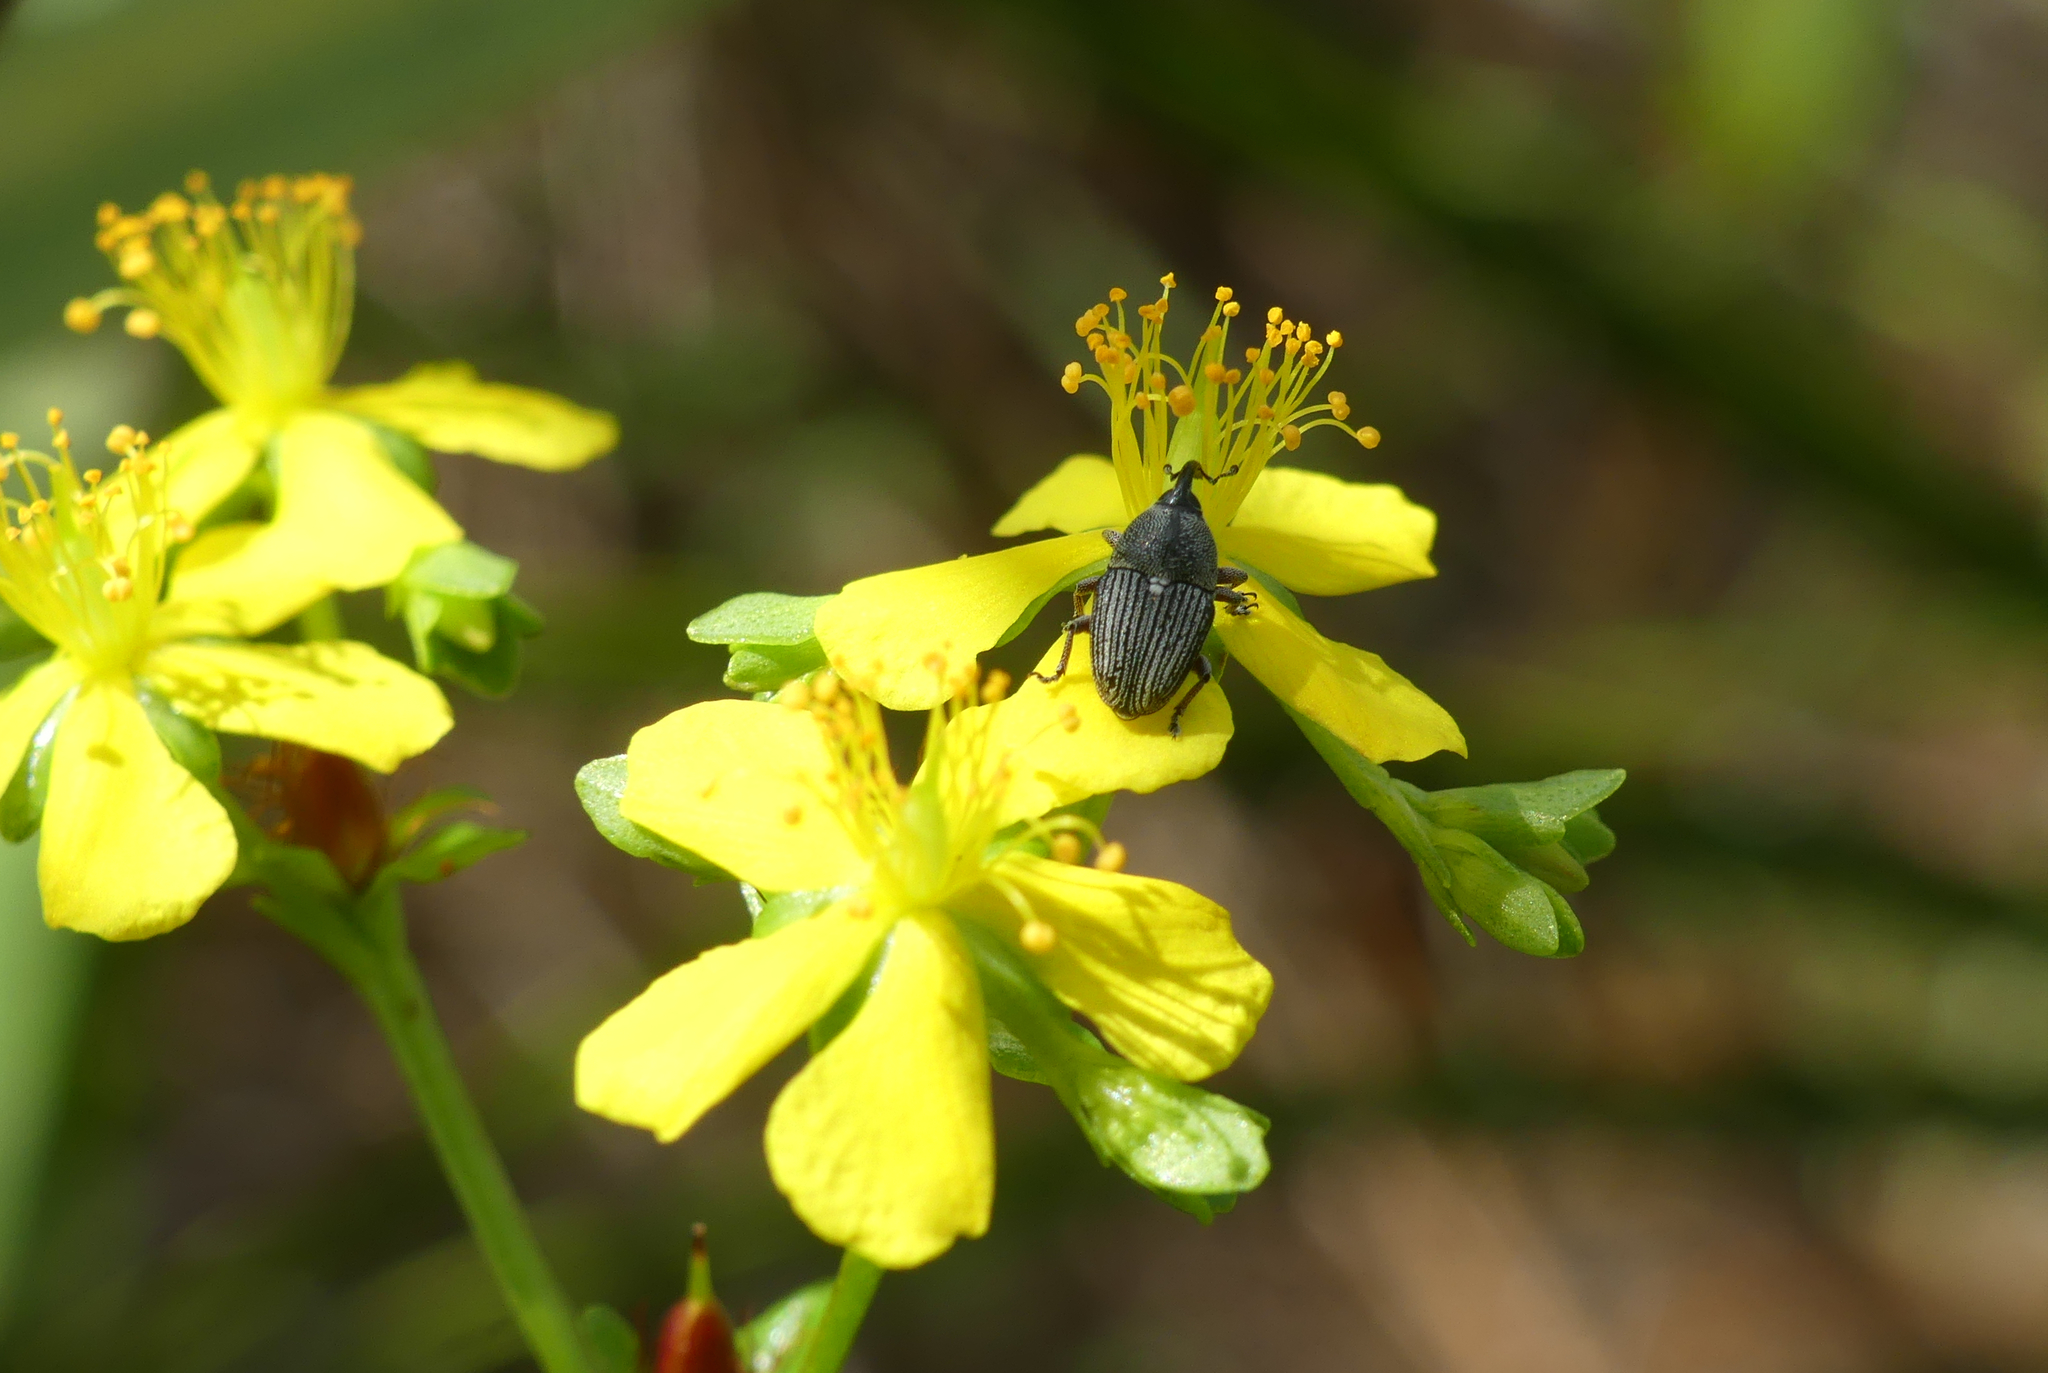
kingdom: Animalia
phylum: Arthropoda
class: Insecta
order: Coleoptera
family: Curculionidae
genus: Odontocorynus
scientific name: Odontocorynus larvatus
